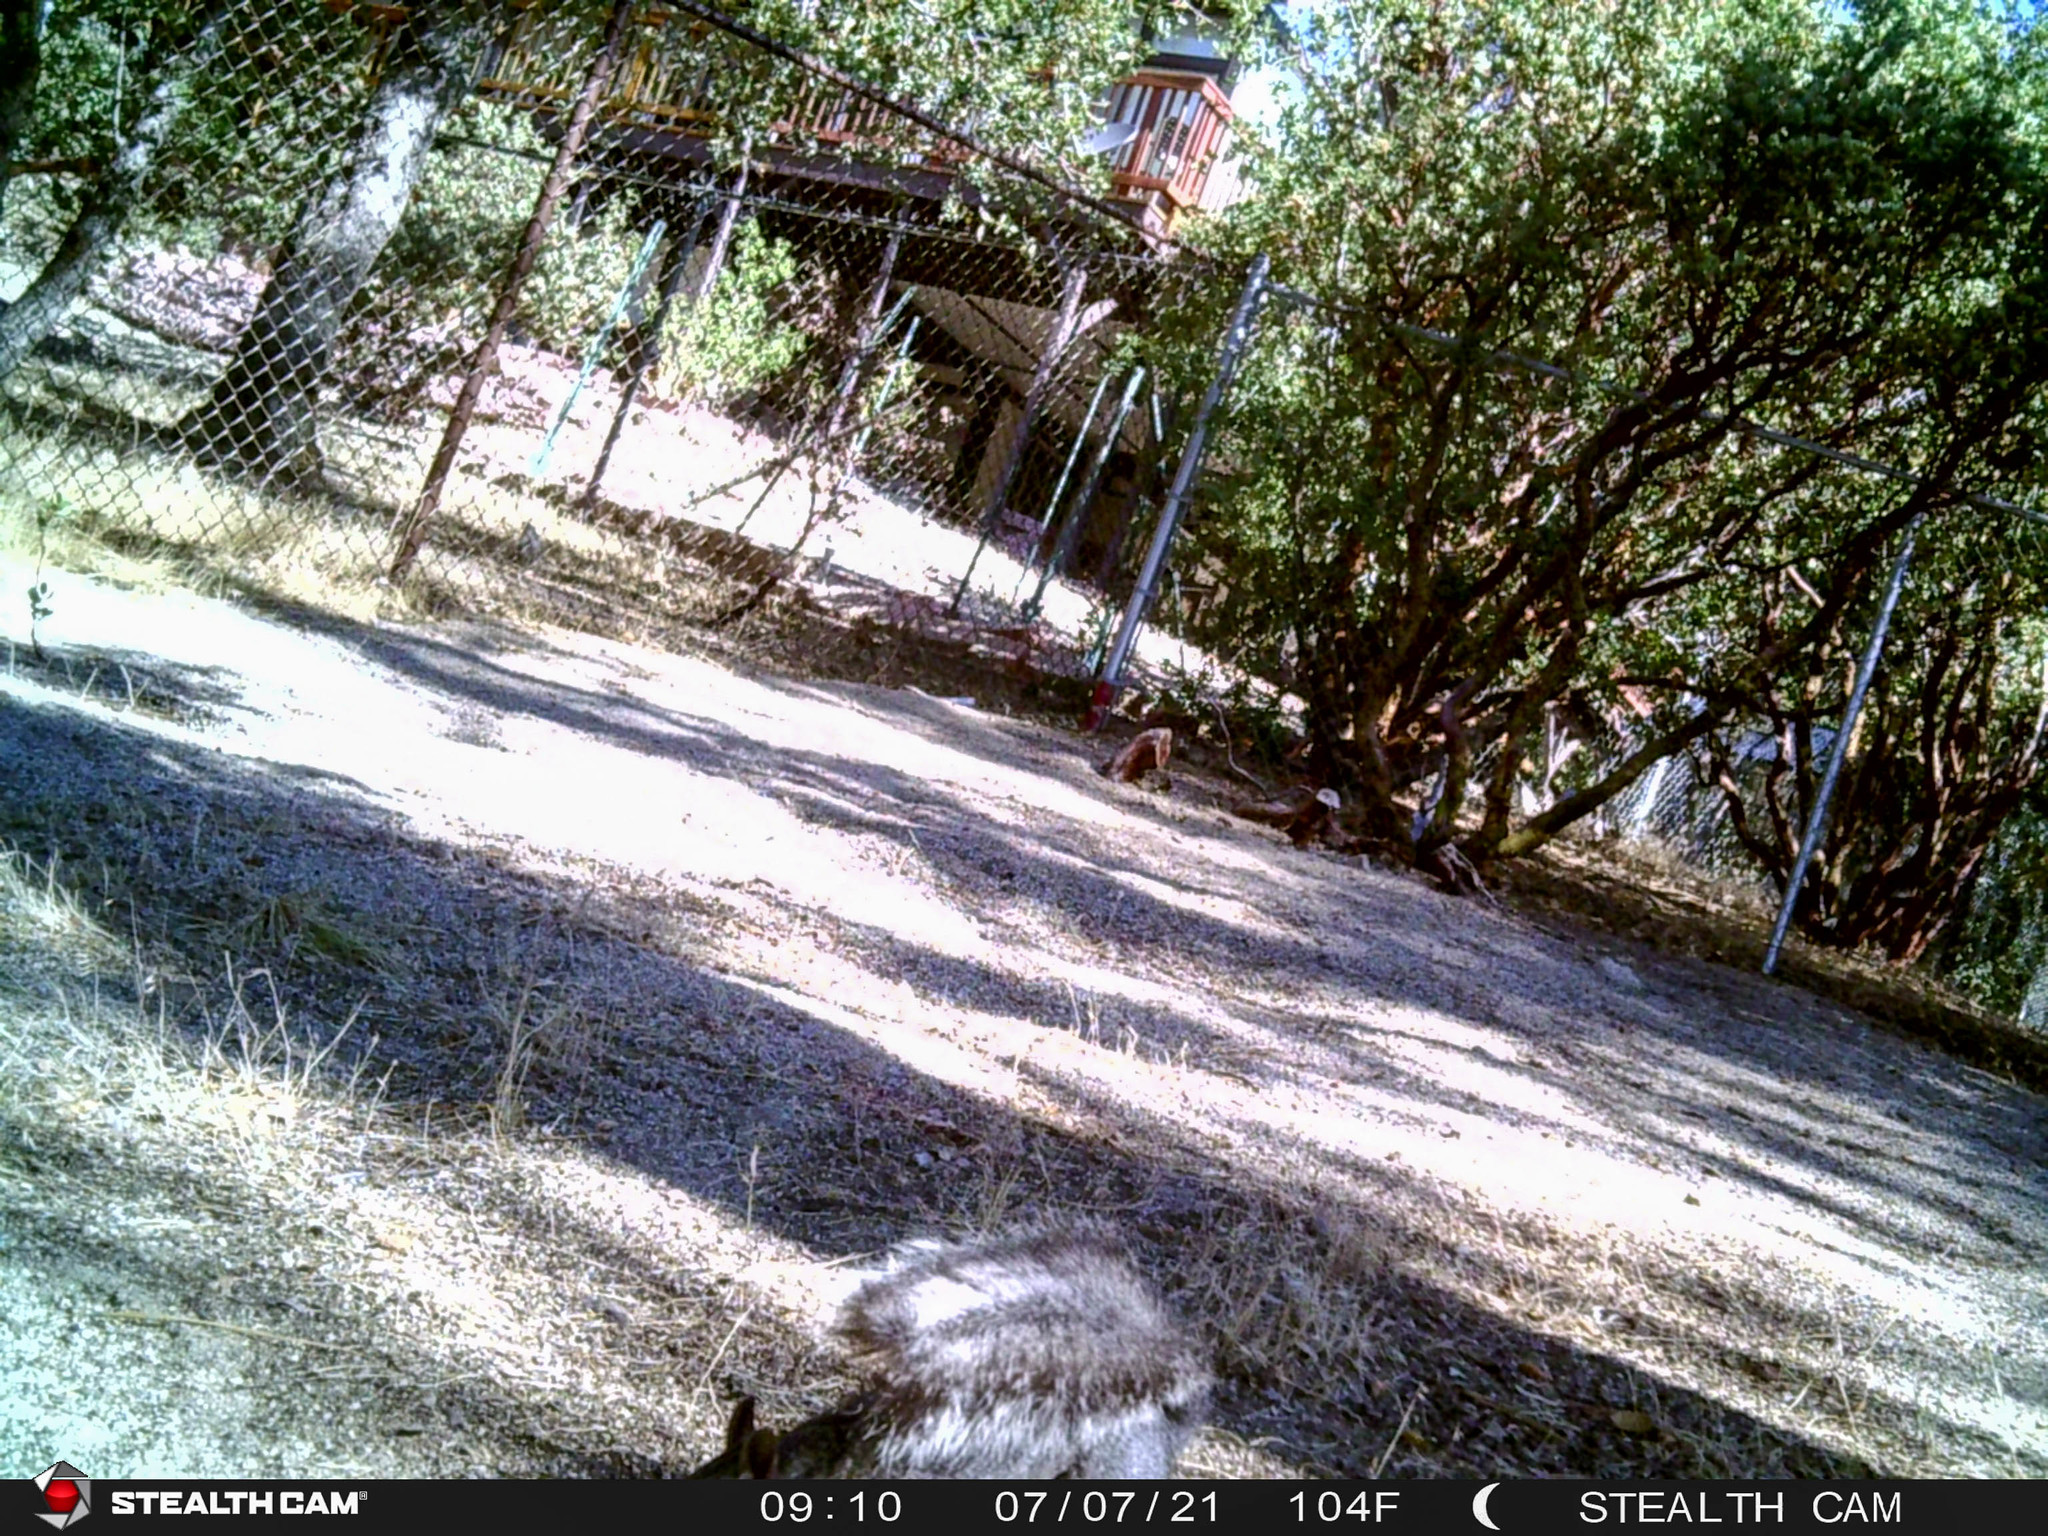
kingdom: Animalia
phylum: Chordata
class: Mammalia
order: Rodentia
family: Sciuridae
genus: Sciurus
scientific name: Sciurus griseus
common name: Western gray squirrel
